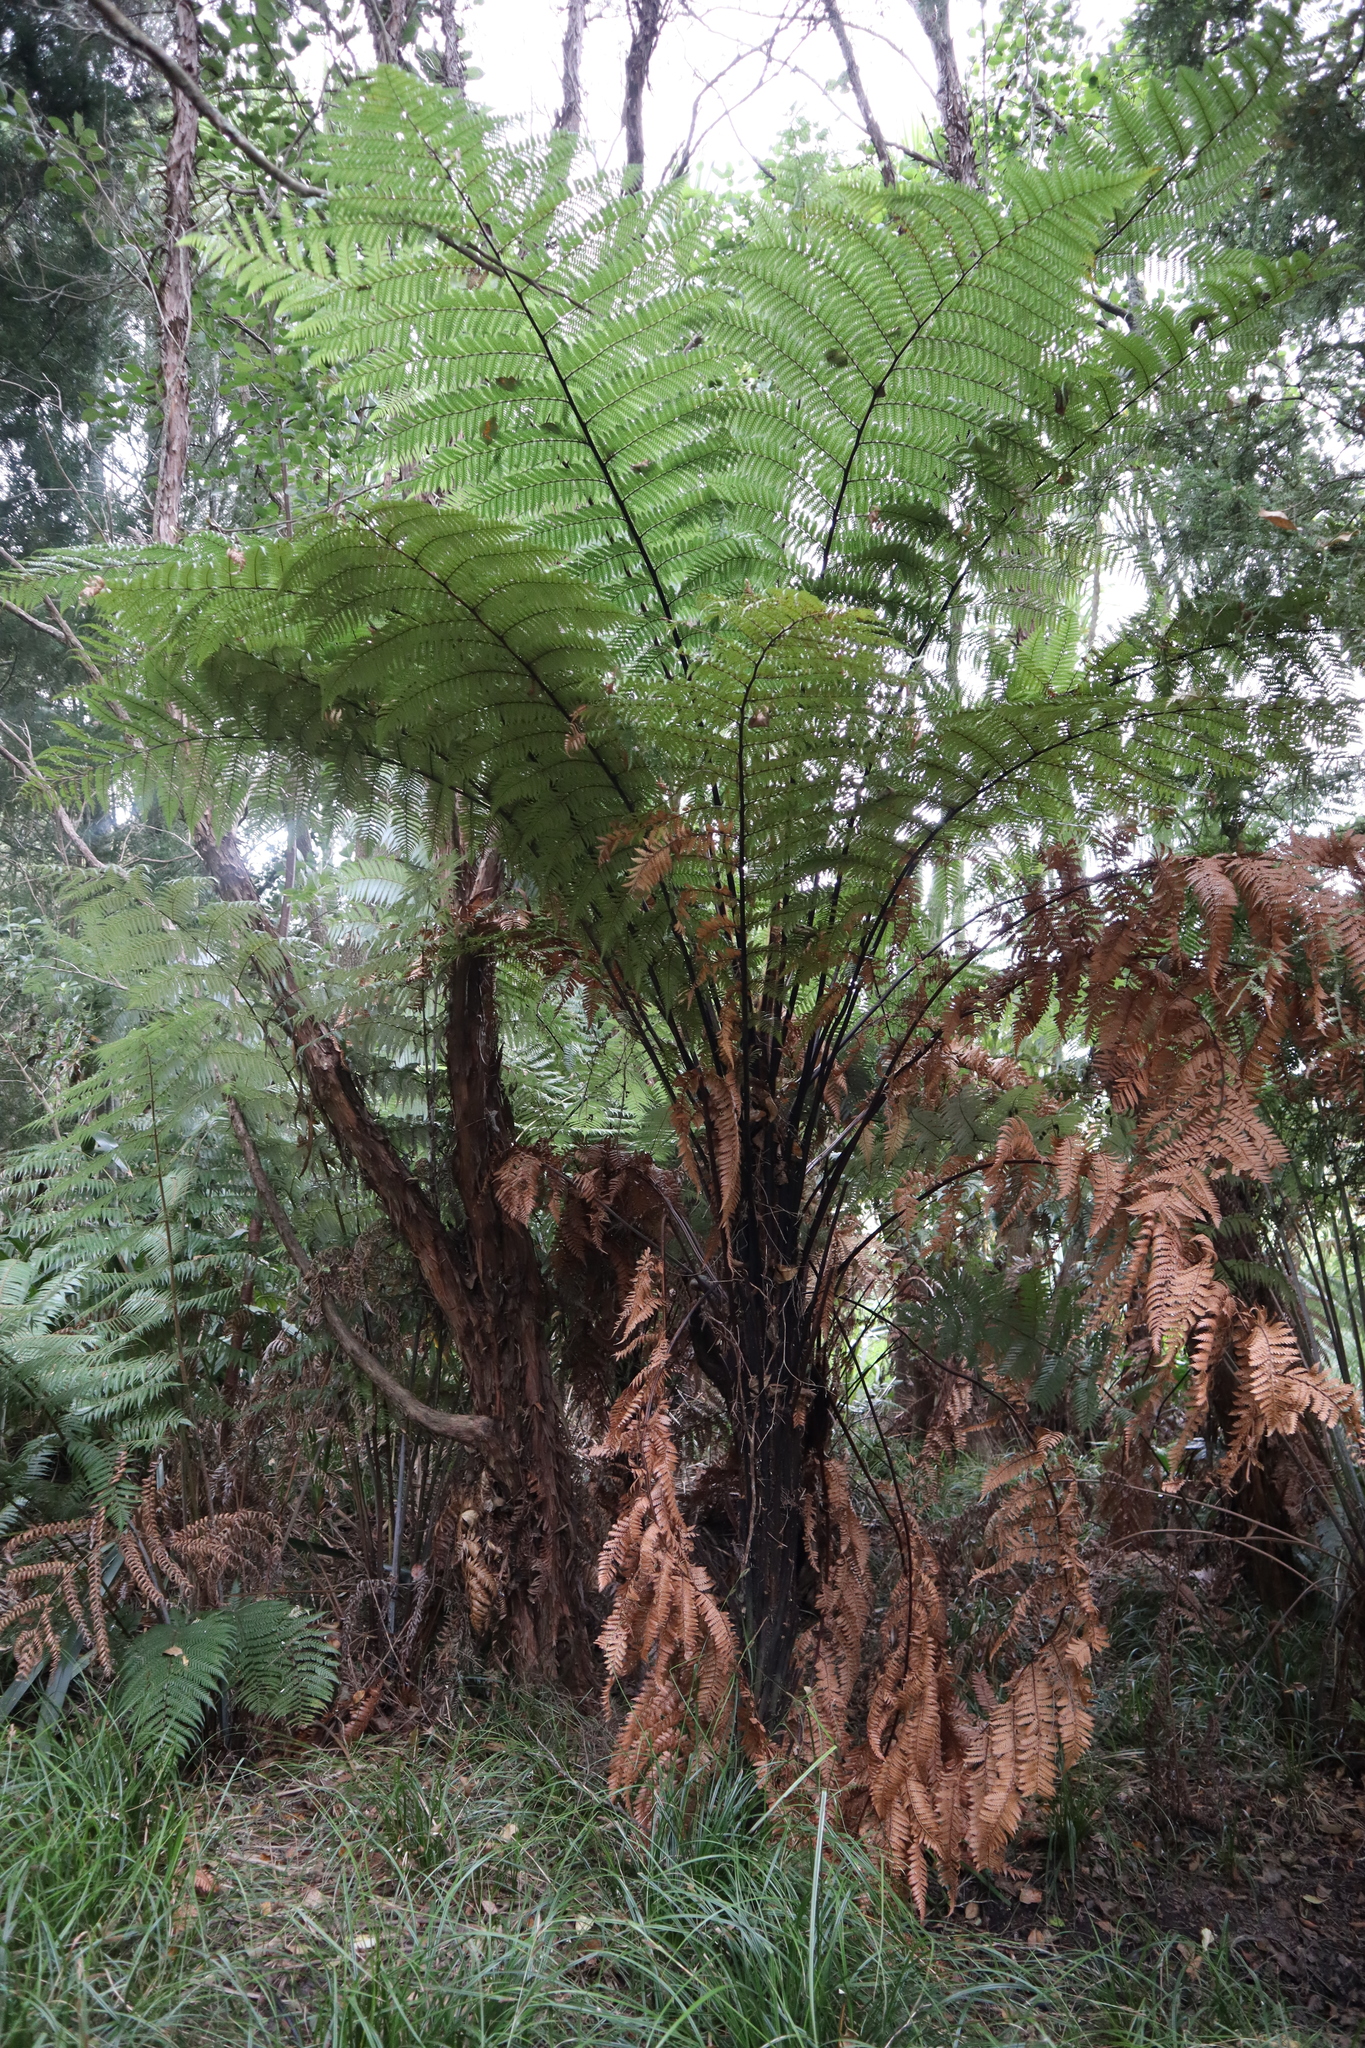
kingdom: Plantae
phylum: Tracheophyta
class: Polypodiopsida
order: Cyatheales
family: Dicksoniaceae
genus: Dicksonia
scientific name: Dicksonia squarrosa
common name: Hard treefern
